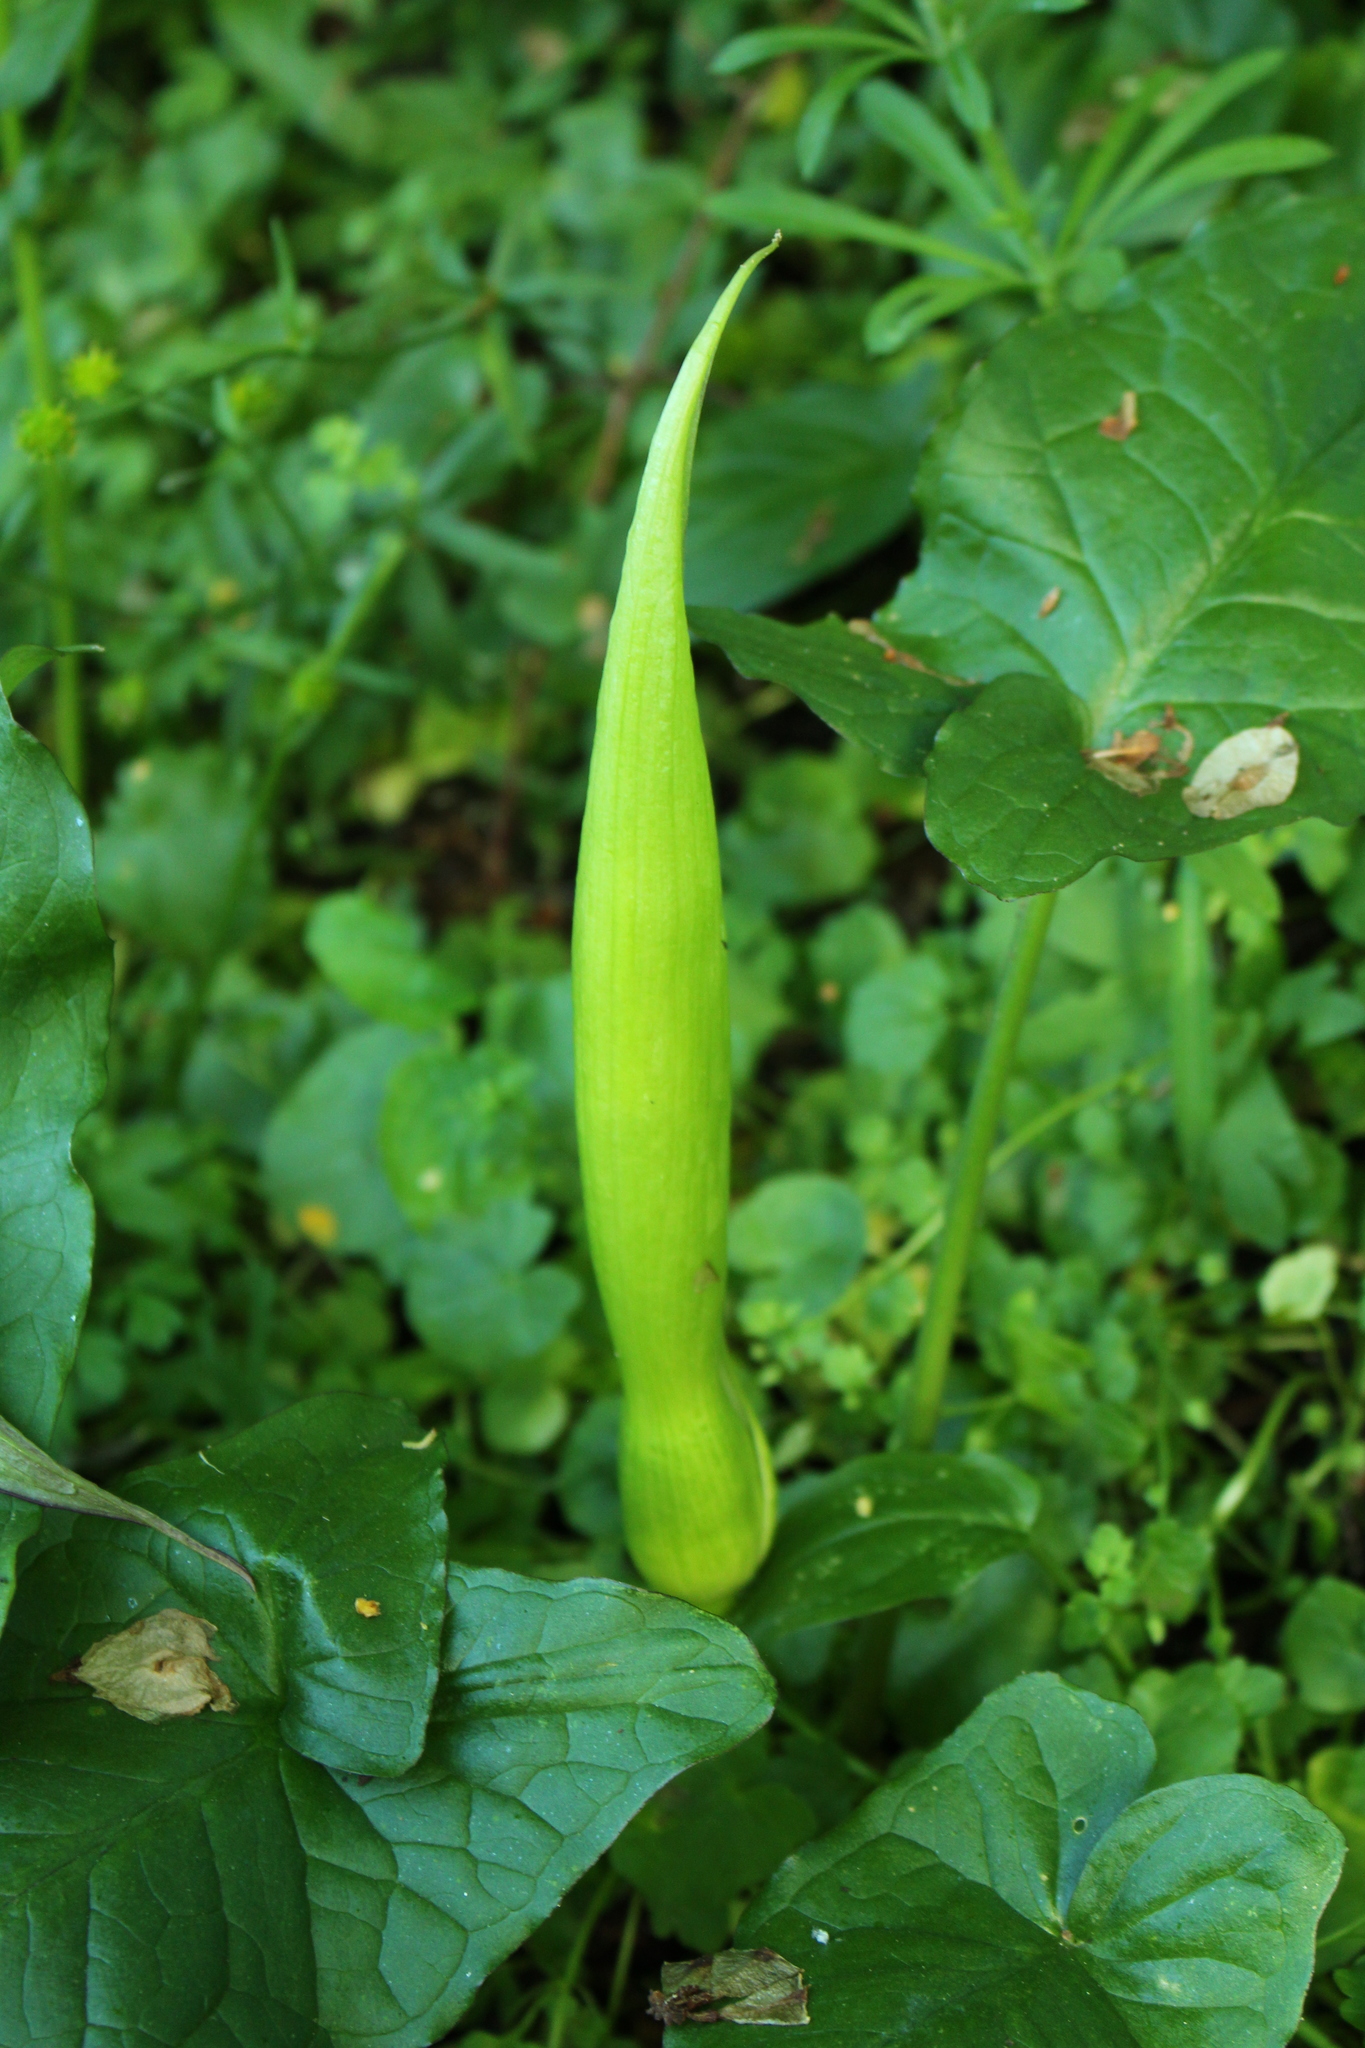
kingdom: Plantae
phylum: Tracheophyta
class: Liliopsida
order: Alismatales
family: Araceae
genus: Arum
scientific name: Arum maculatum
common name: Lords-and-ladies
